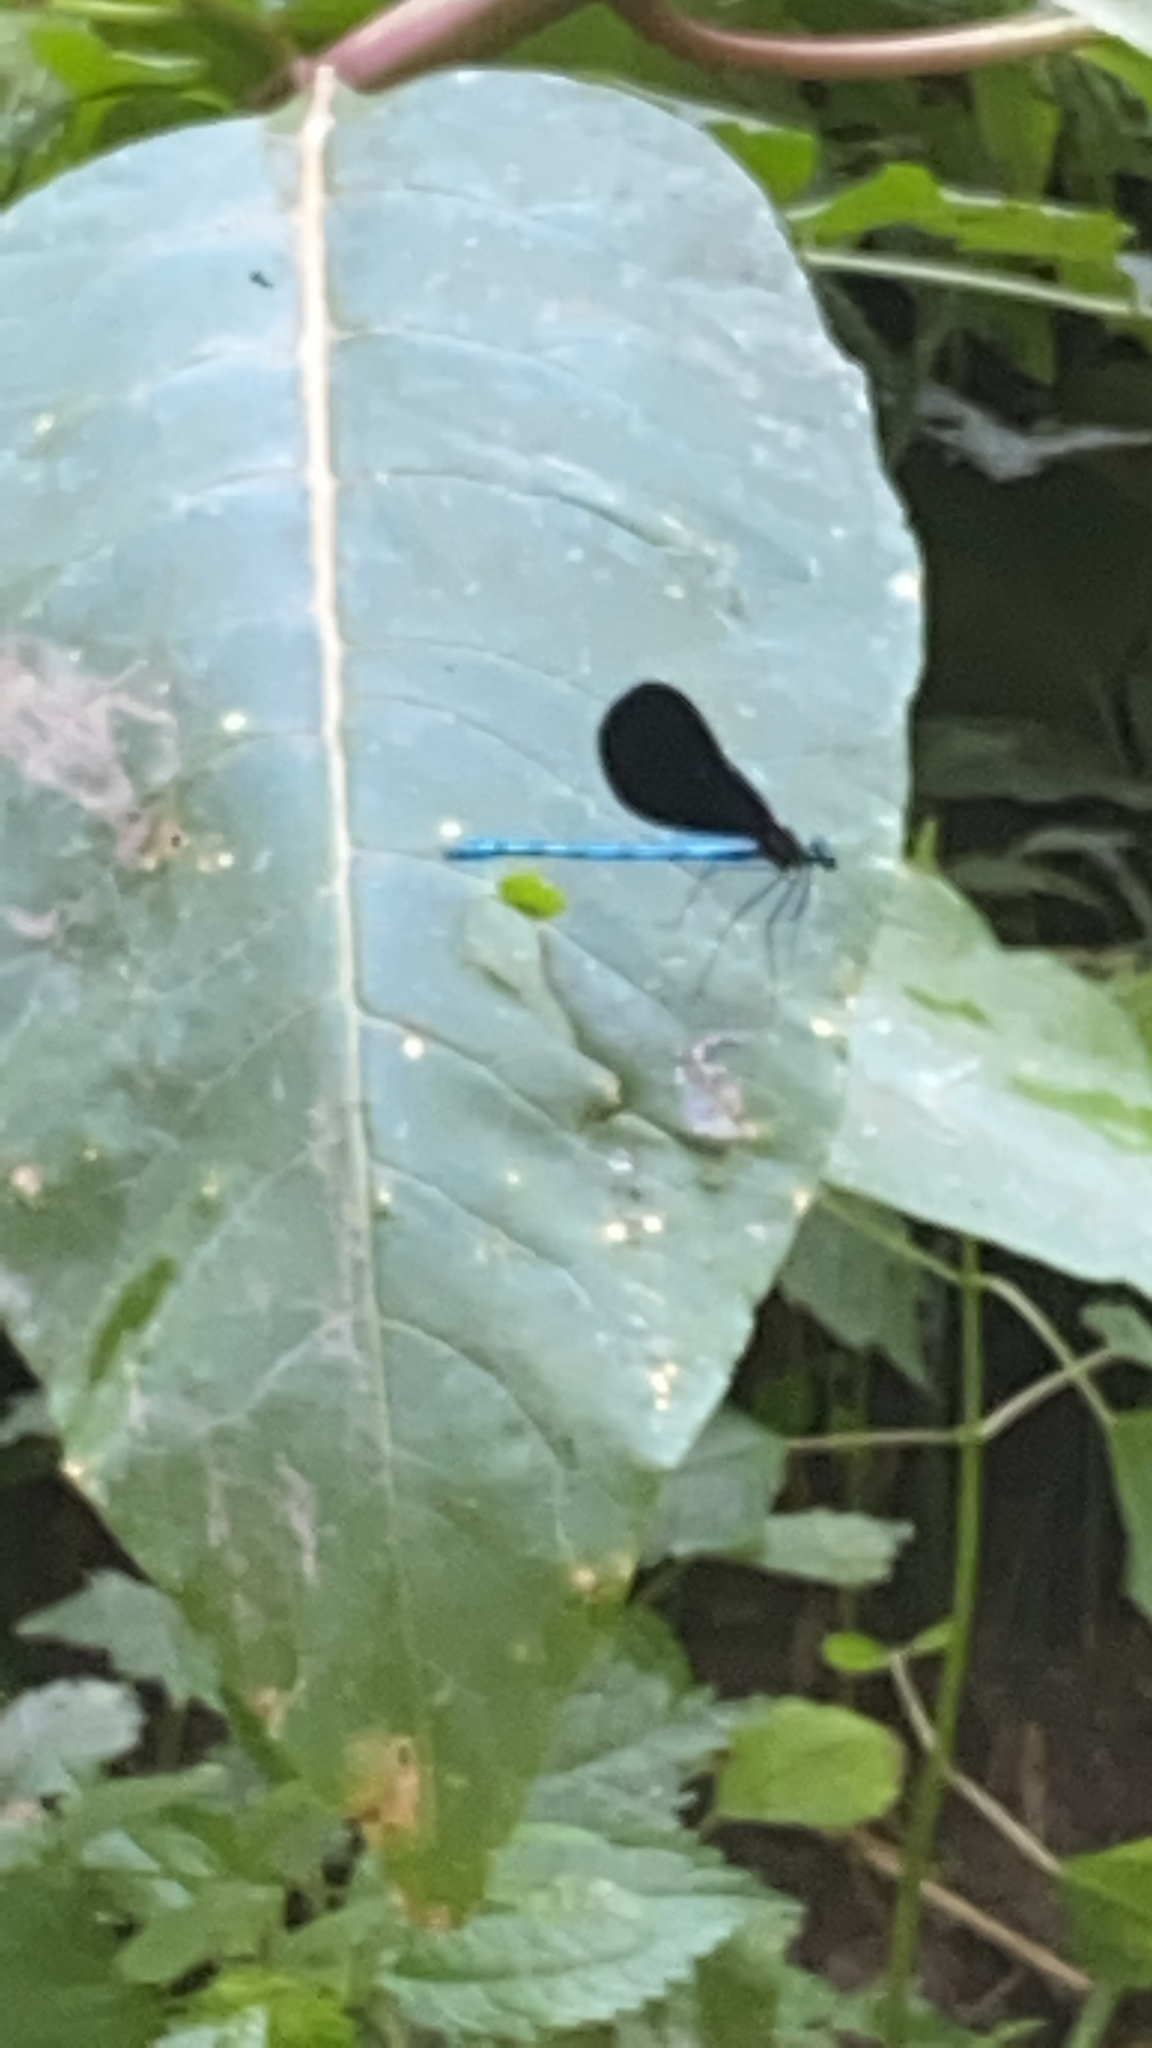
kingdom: Animalia
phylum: Arthropoda
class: Insecta
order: Odonata
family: Calopterygidae
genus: Calopteryx
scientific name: Calopteryx maculata
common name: Ebony jewelwing
